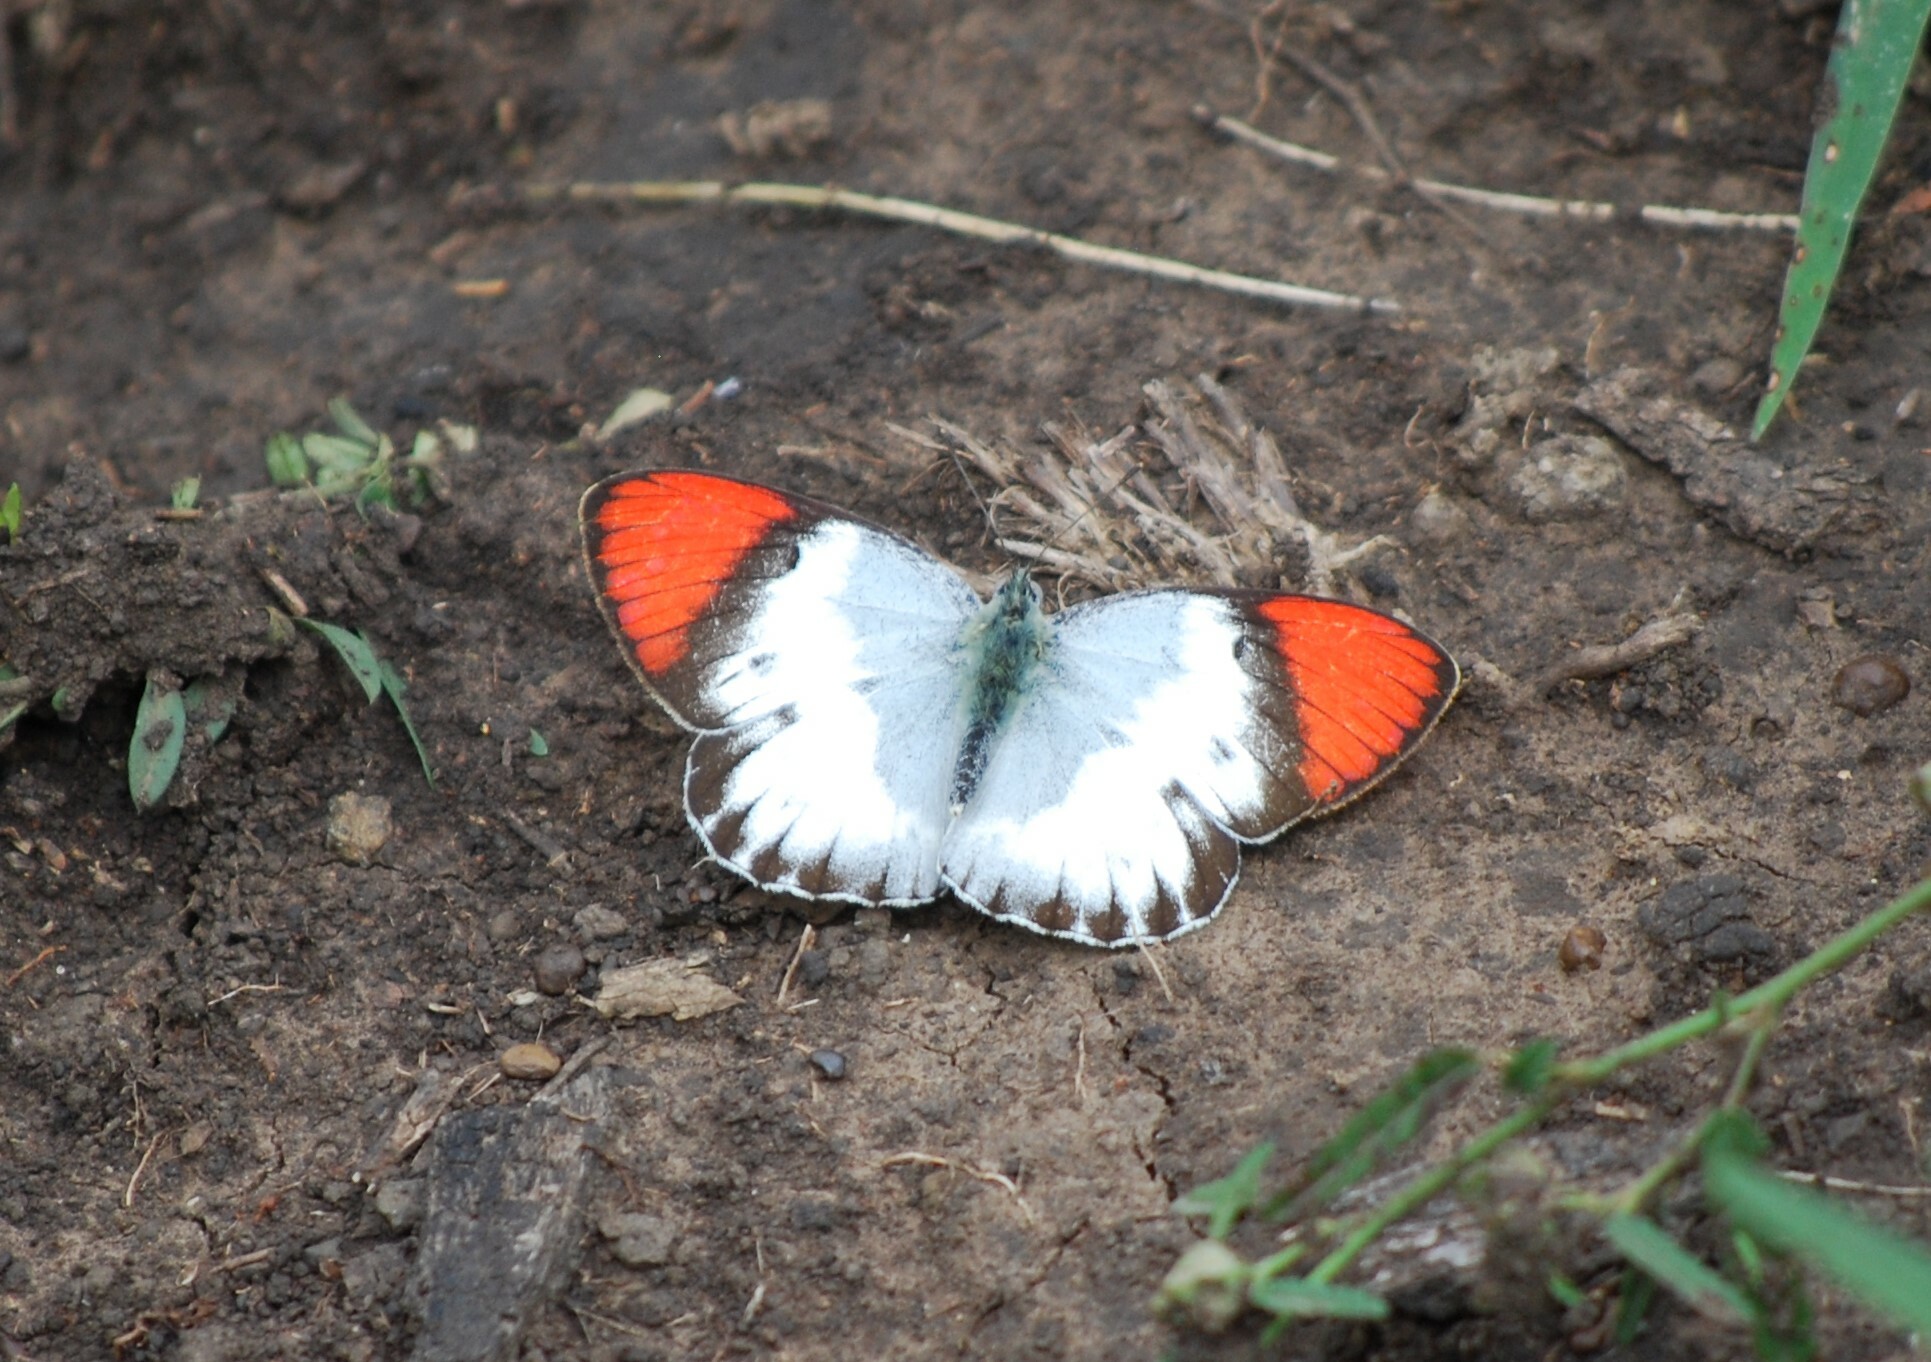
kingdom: Animalia
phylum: Arthropoda
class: Insecta
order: Lepidoptera
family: Pieridae
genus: Colotis
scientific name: Colotis annae
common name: Scarlet tip
